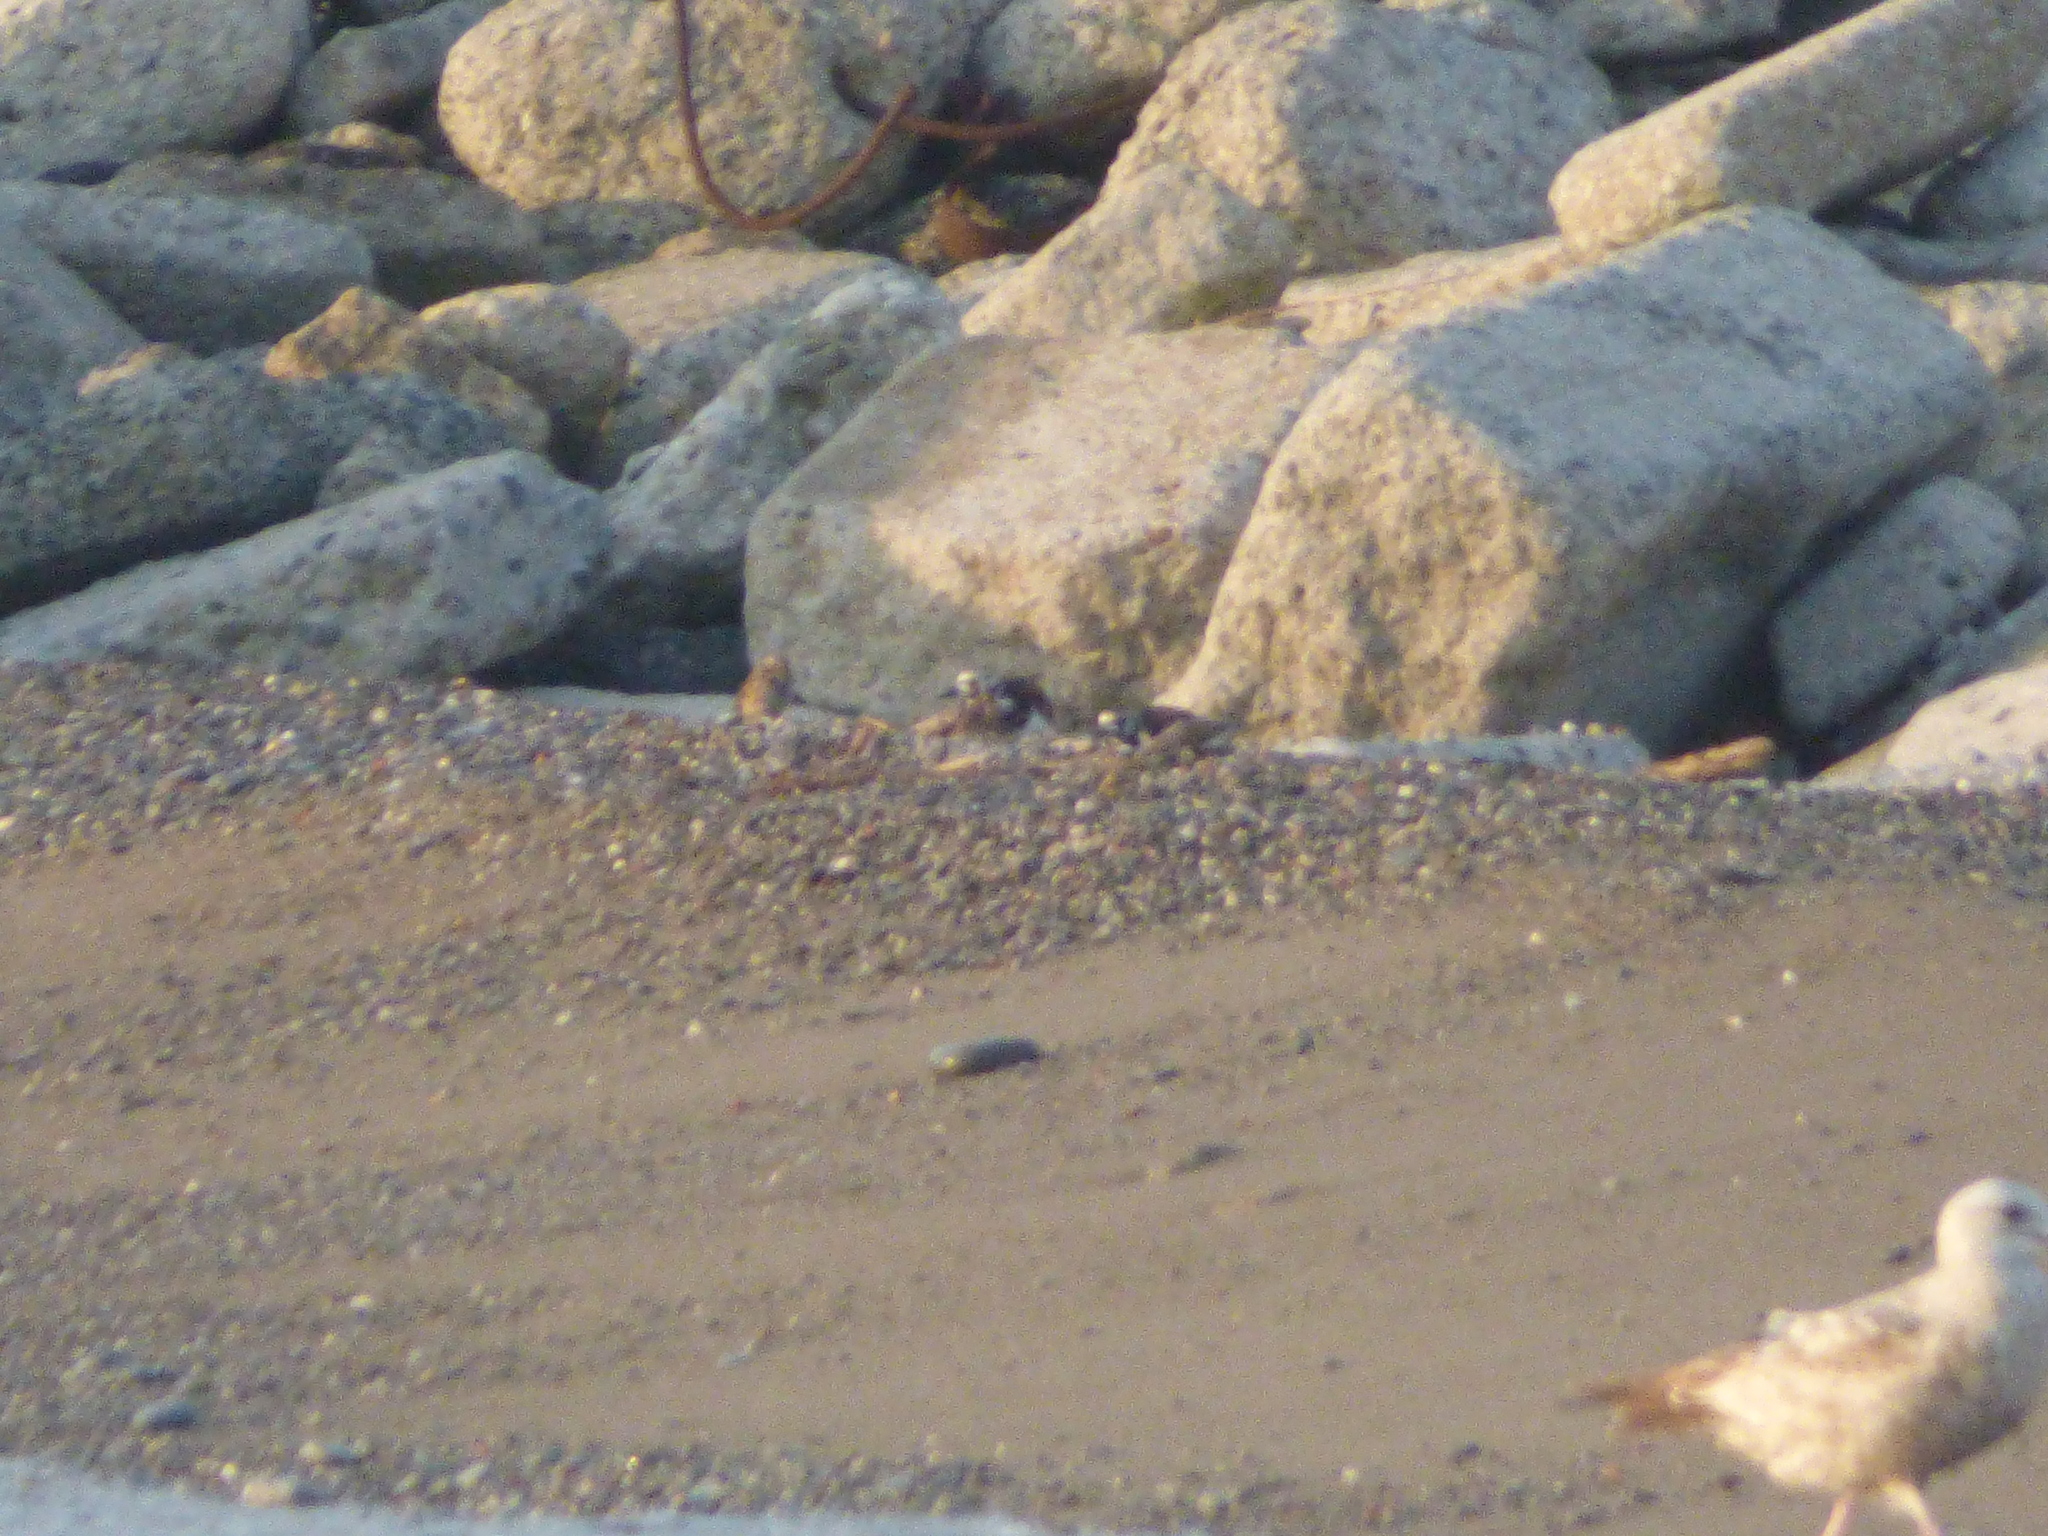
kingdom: Animalia
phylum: Chordata
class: Aves
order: Charadriiformes
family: Scolopacidae
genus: Arenaria
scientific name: Arenaria interpres
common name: Ruddy turnstone
